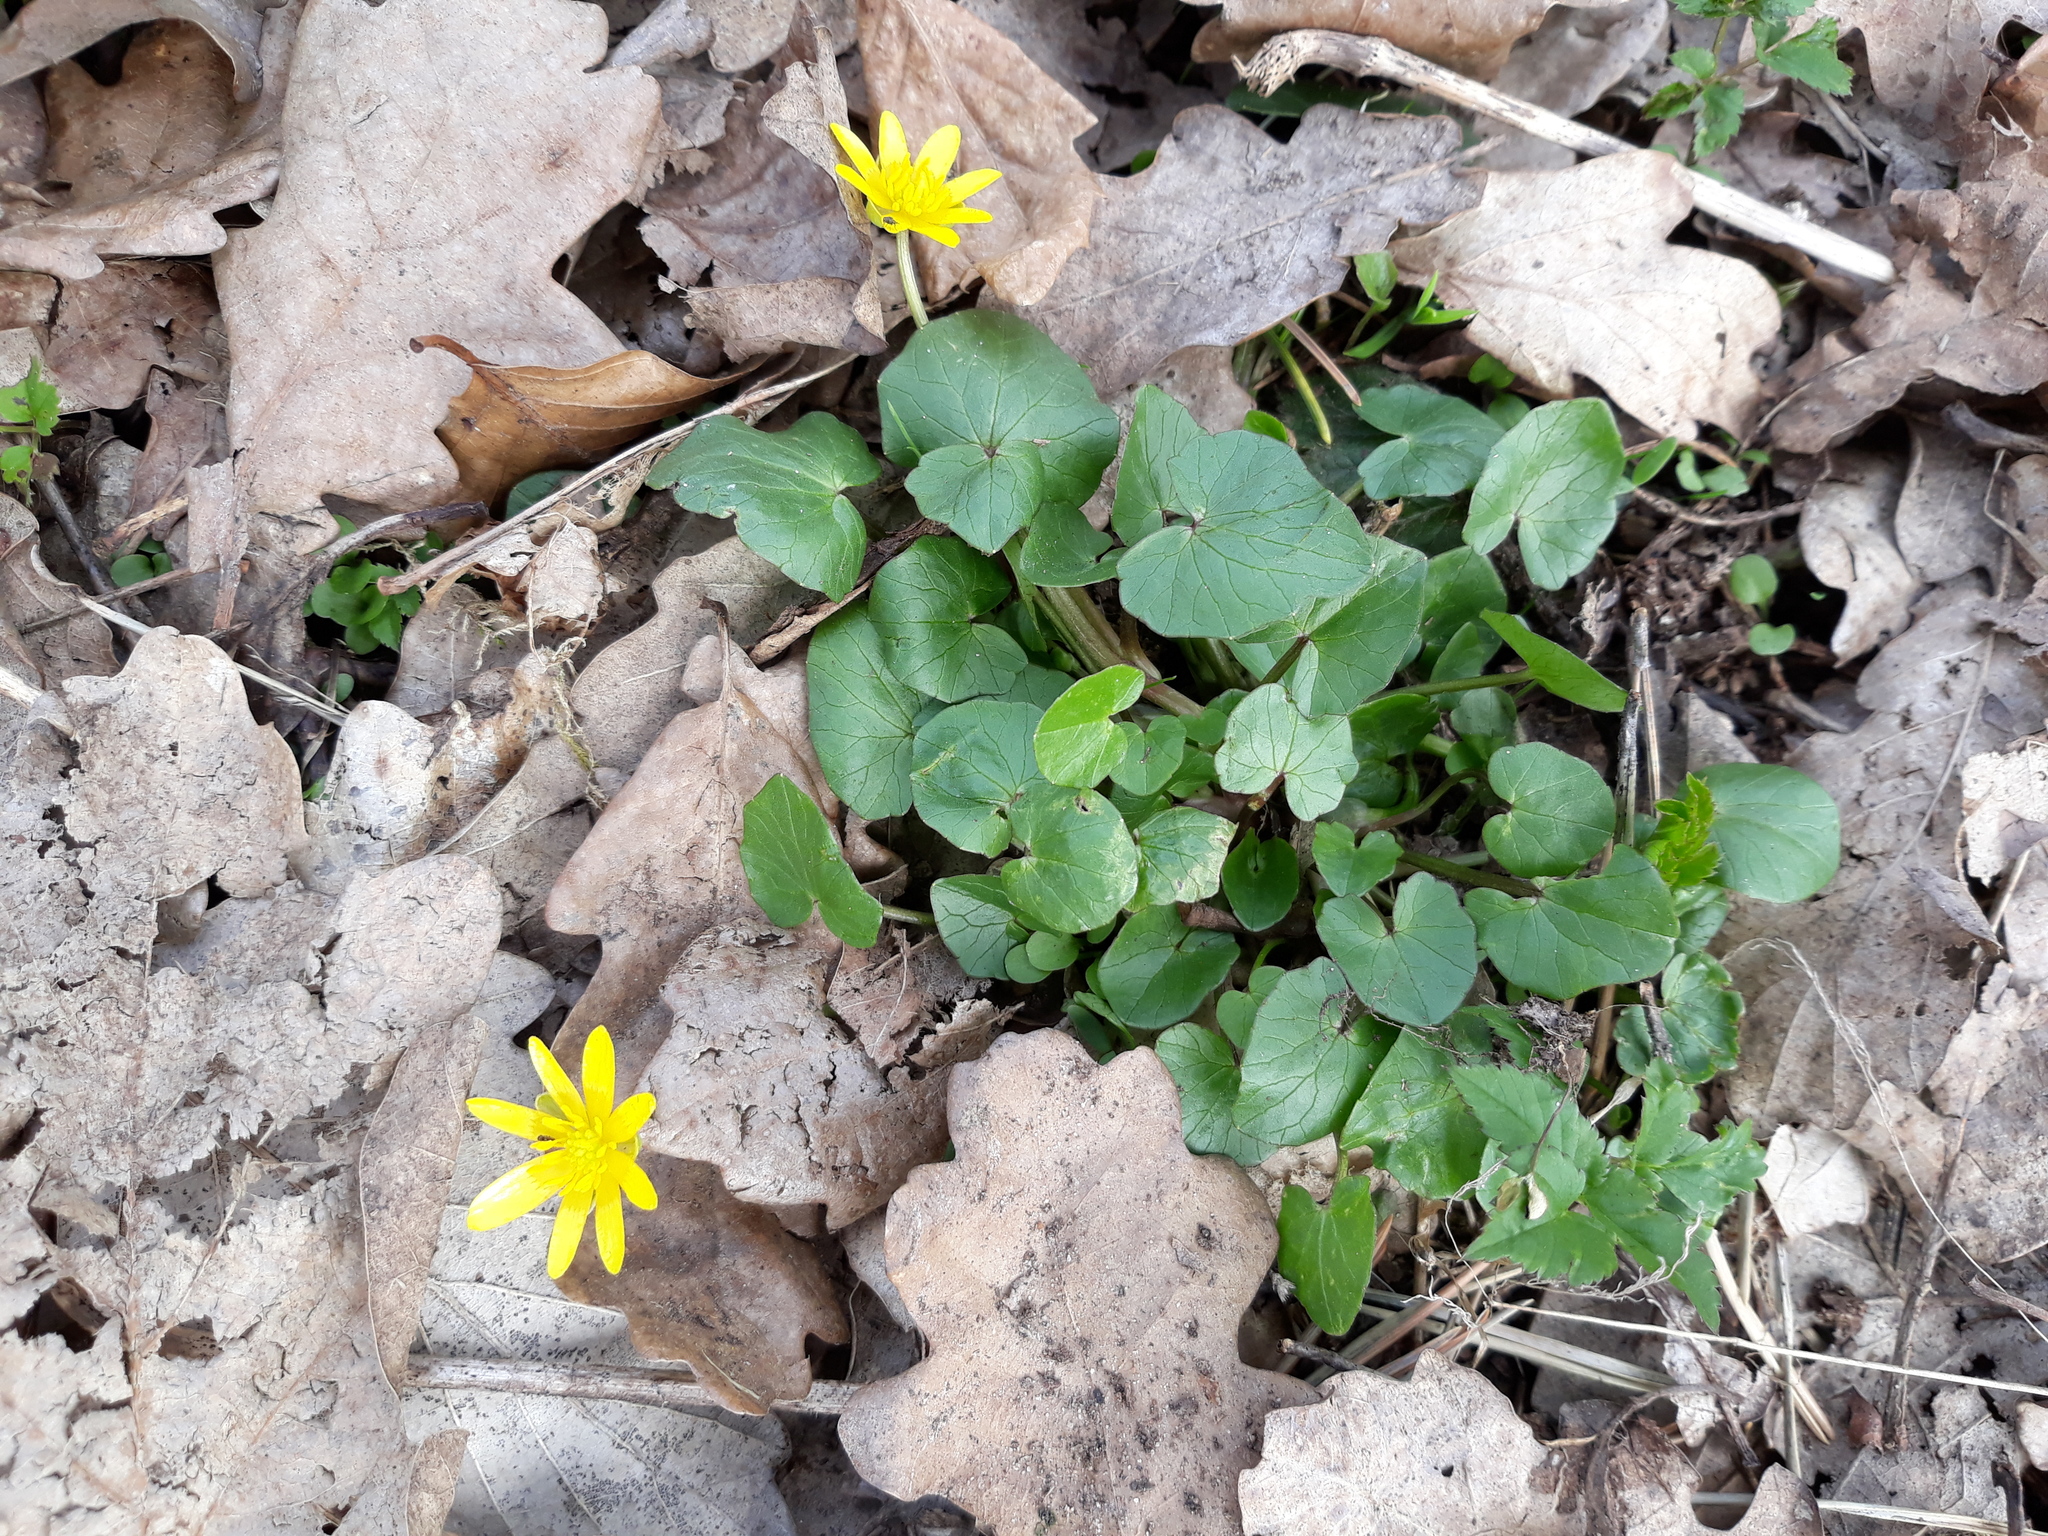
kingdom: Plantae
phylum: Tracheophyta
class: Magnoliopsida
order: Ranunculales
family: Ranunculaceae
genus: Ficaria
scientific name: Ficaria verna
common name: Lesser celandine
